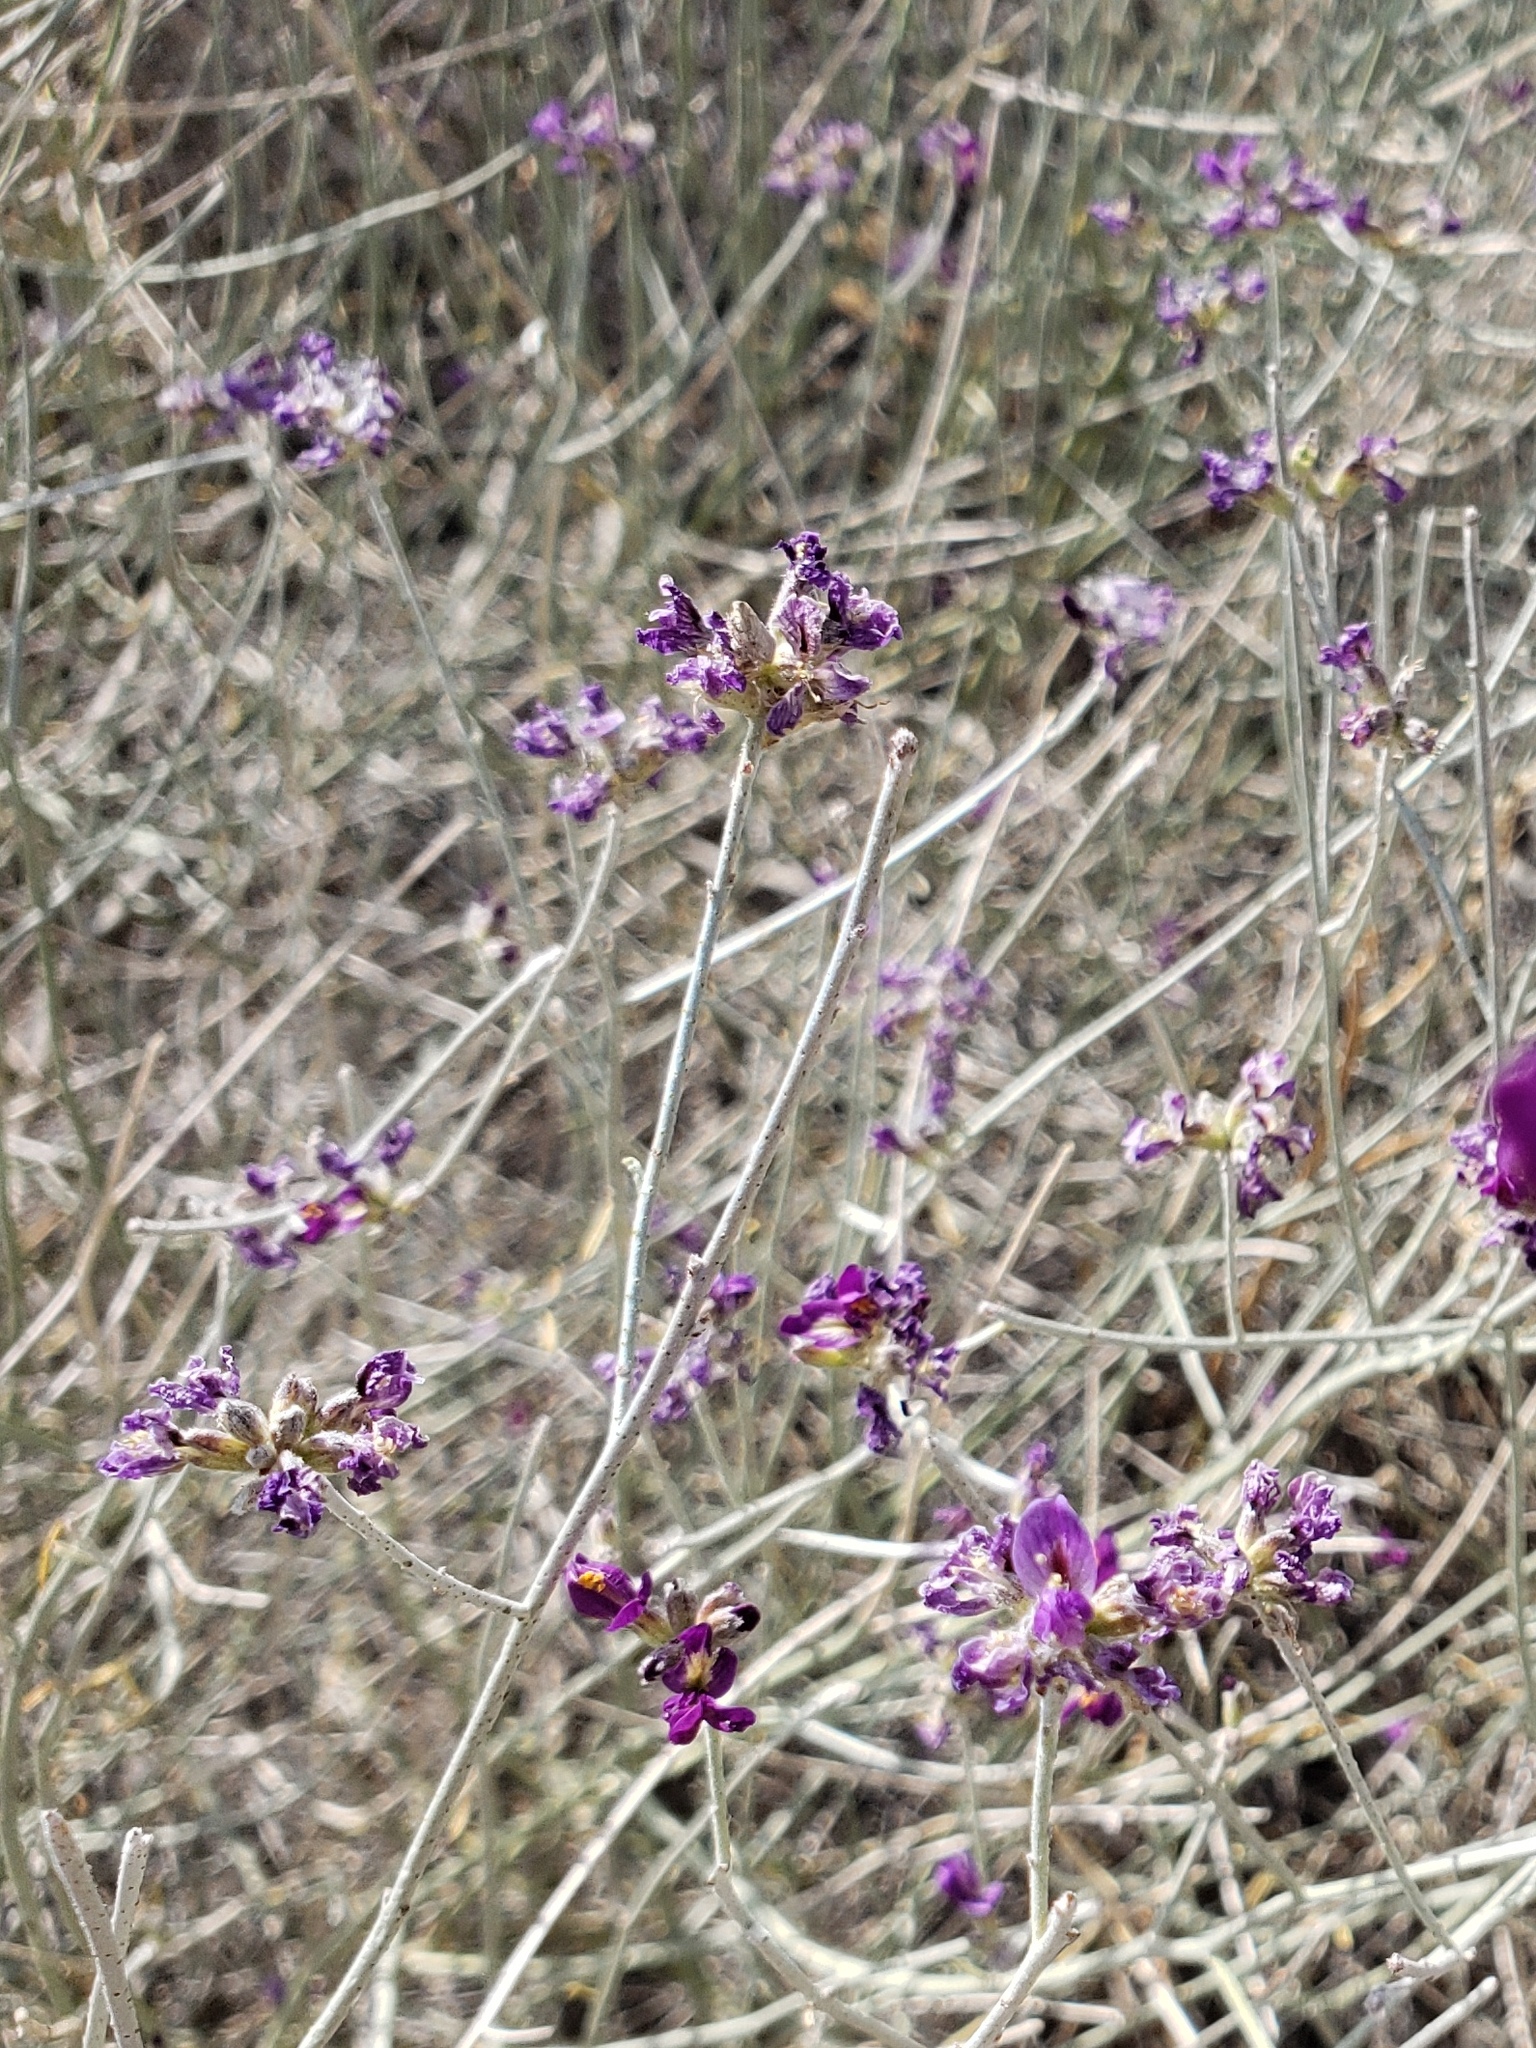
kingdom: Plantae
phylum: Tracheophyta
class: Magnoliopsida
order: Fabales
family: Fabaceae
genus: Psorothamnus
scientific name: Psorothamnus scoparius
